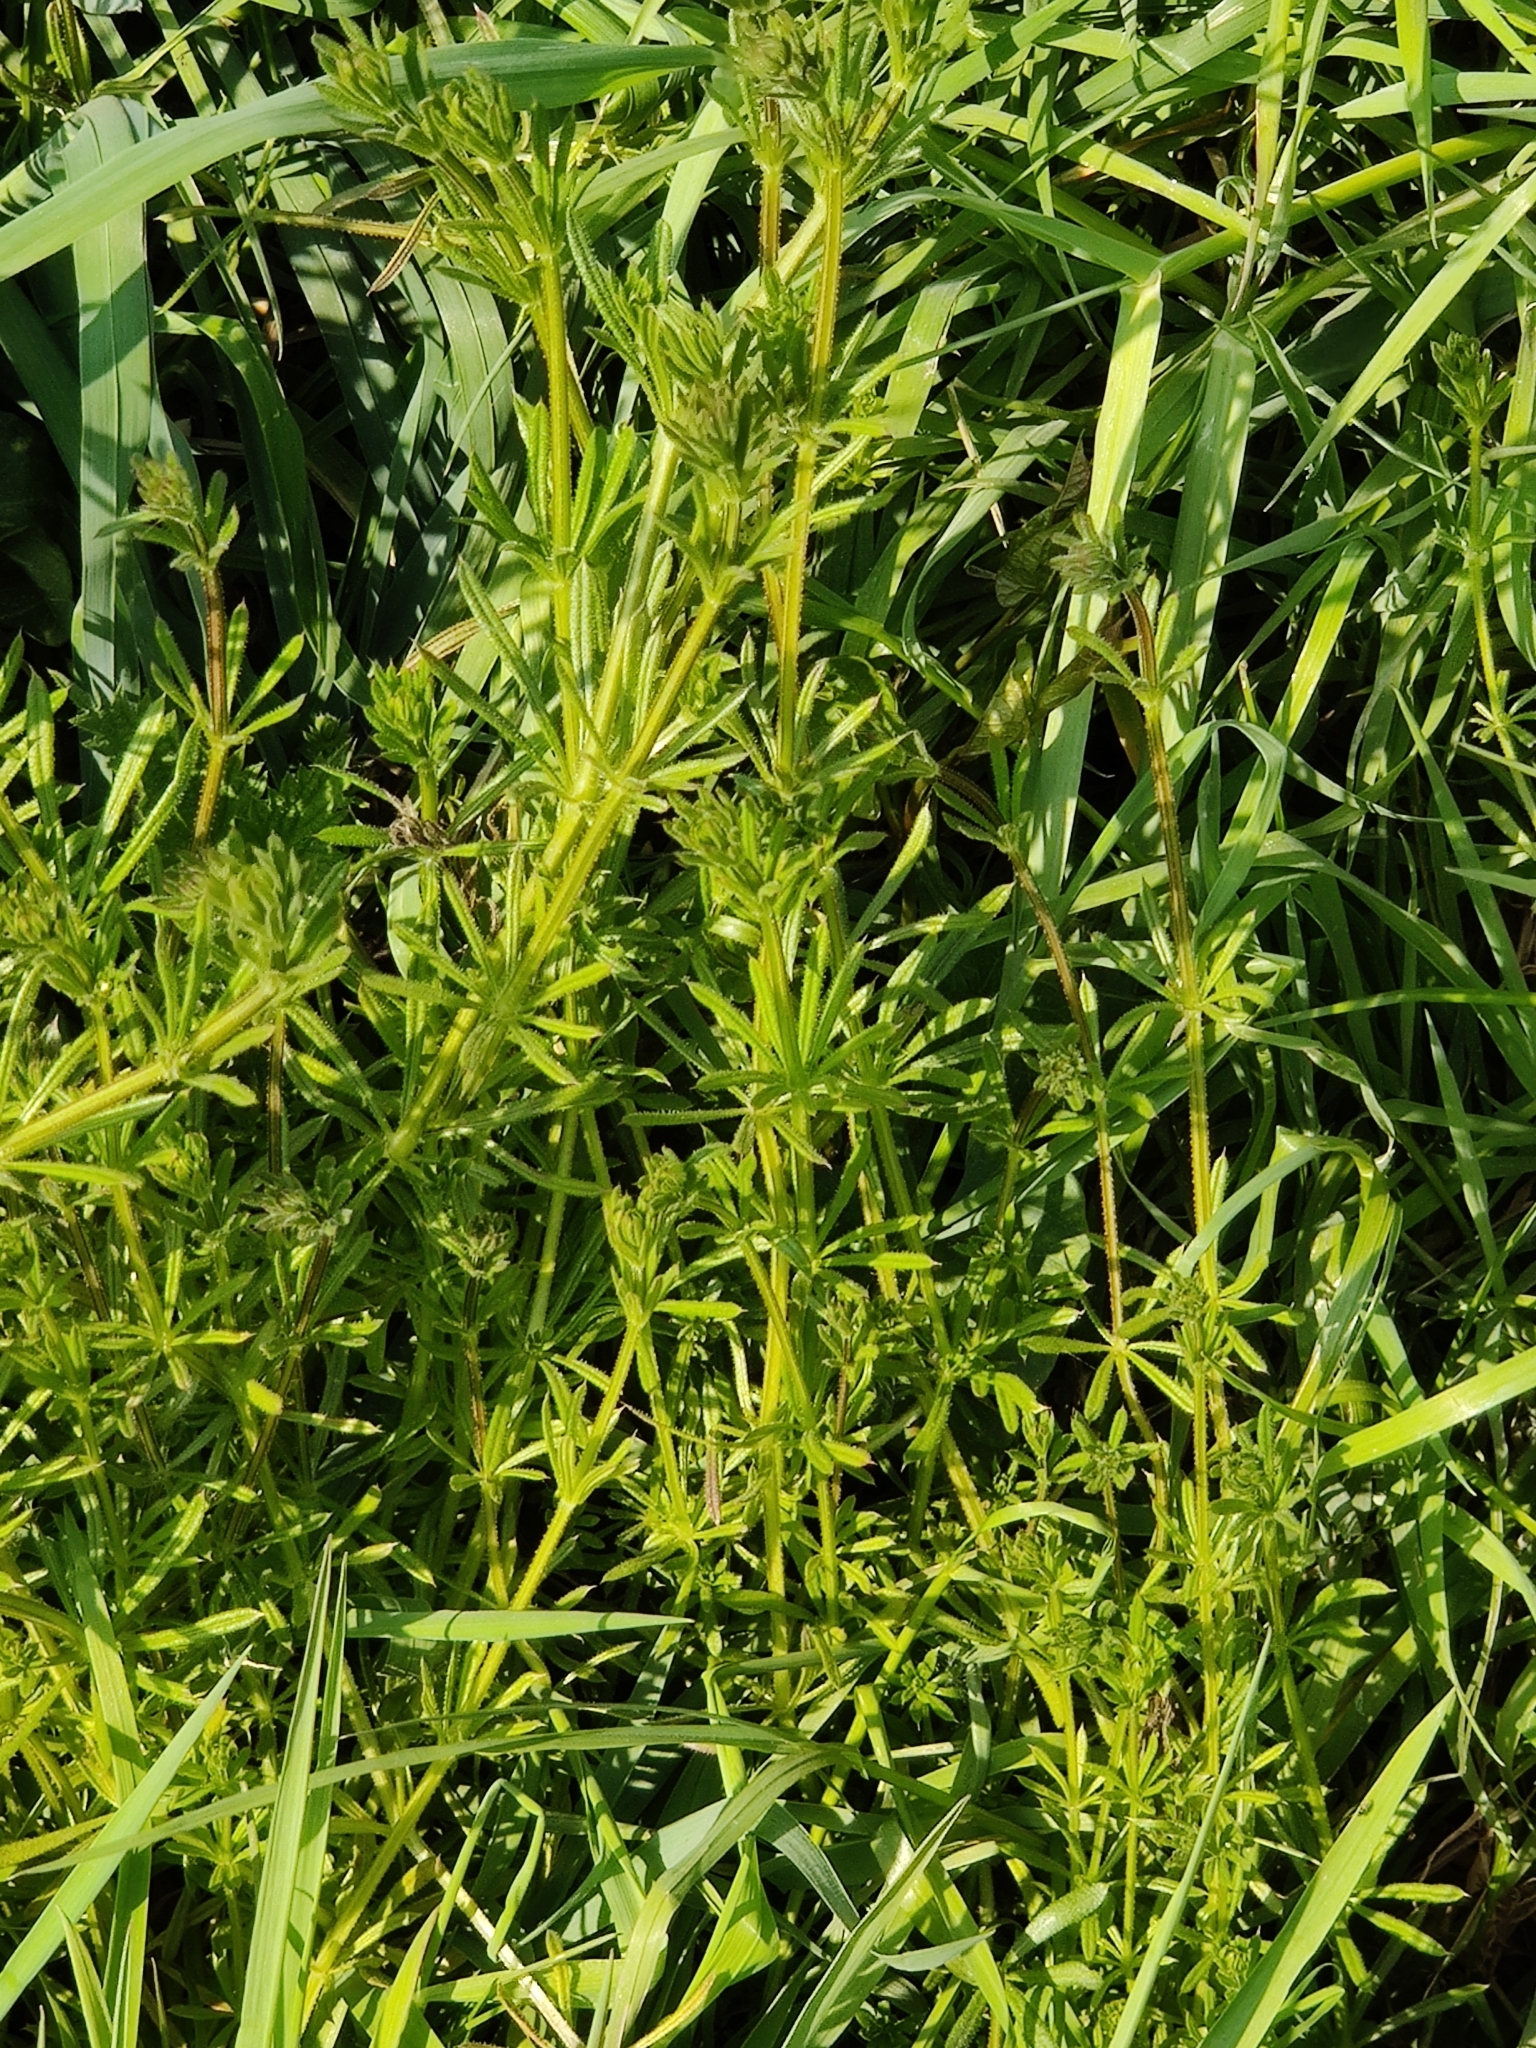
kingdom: Plantae
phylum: Tracheophyta
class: Magnoliopsida
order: Gentianales
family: Rubiaceae
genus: Galium
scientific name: Galium aparine
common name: Cleavers
